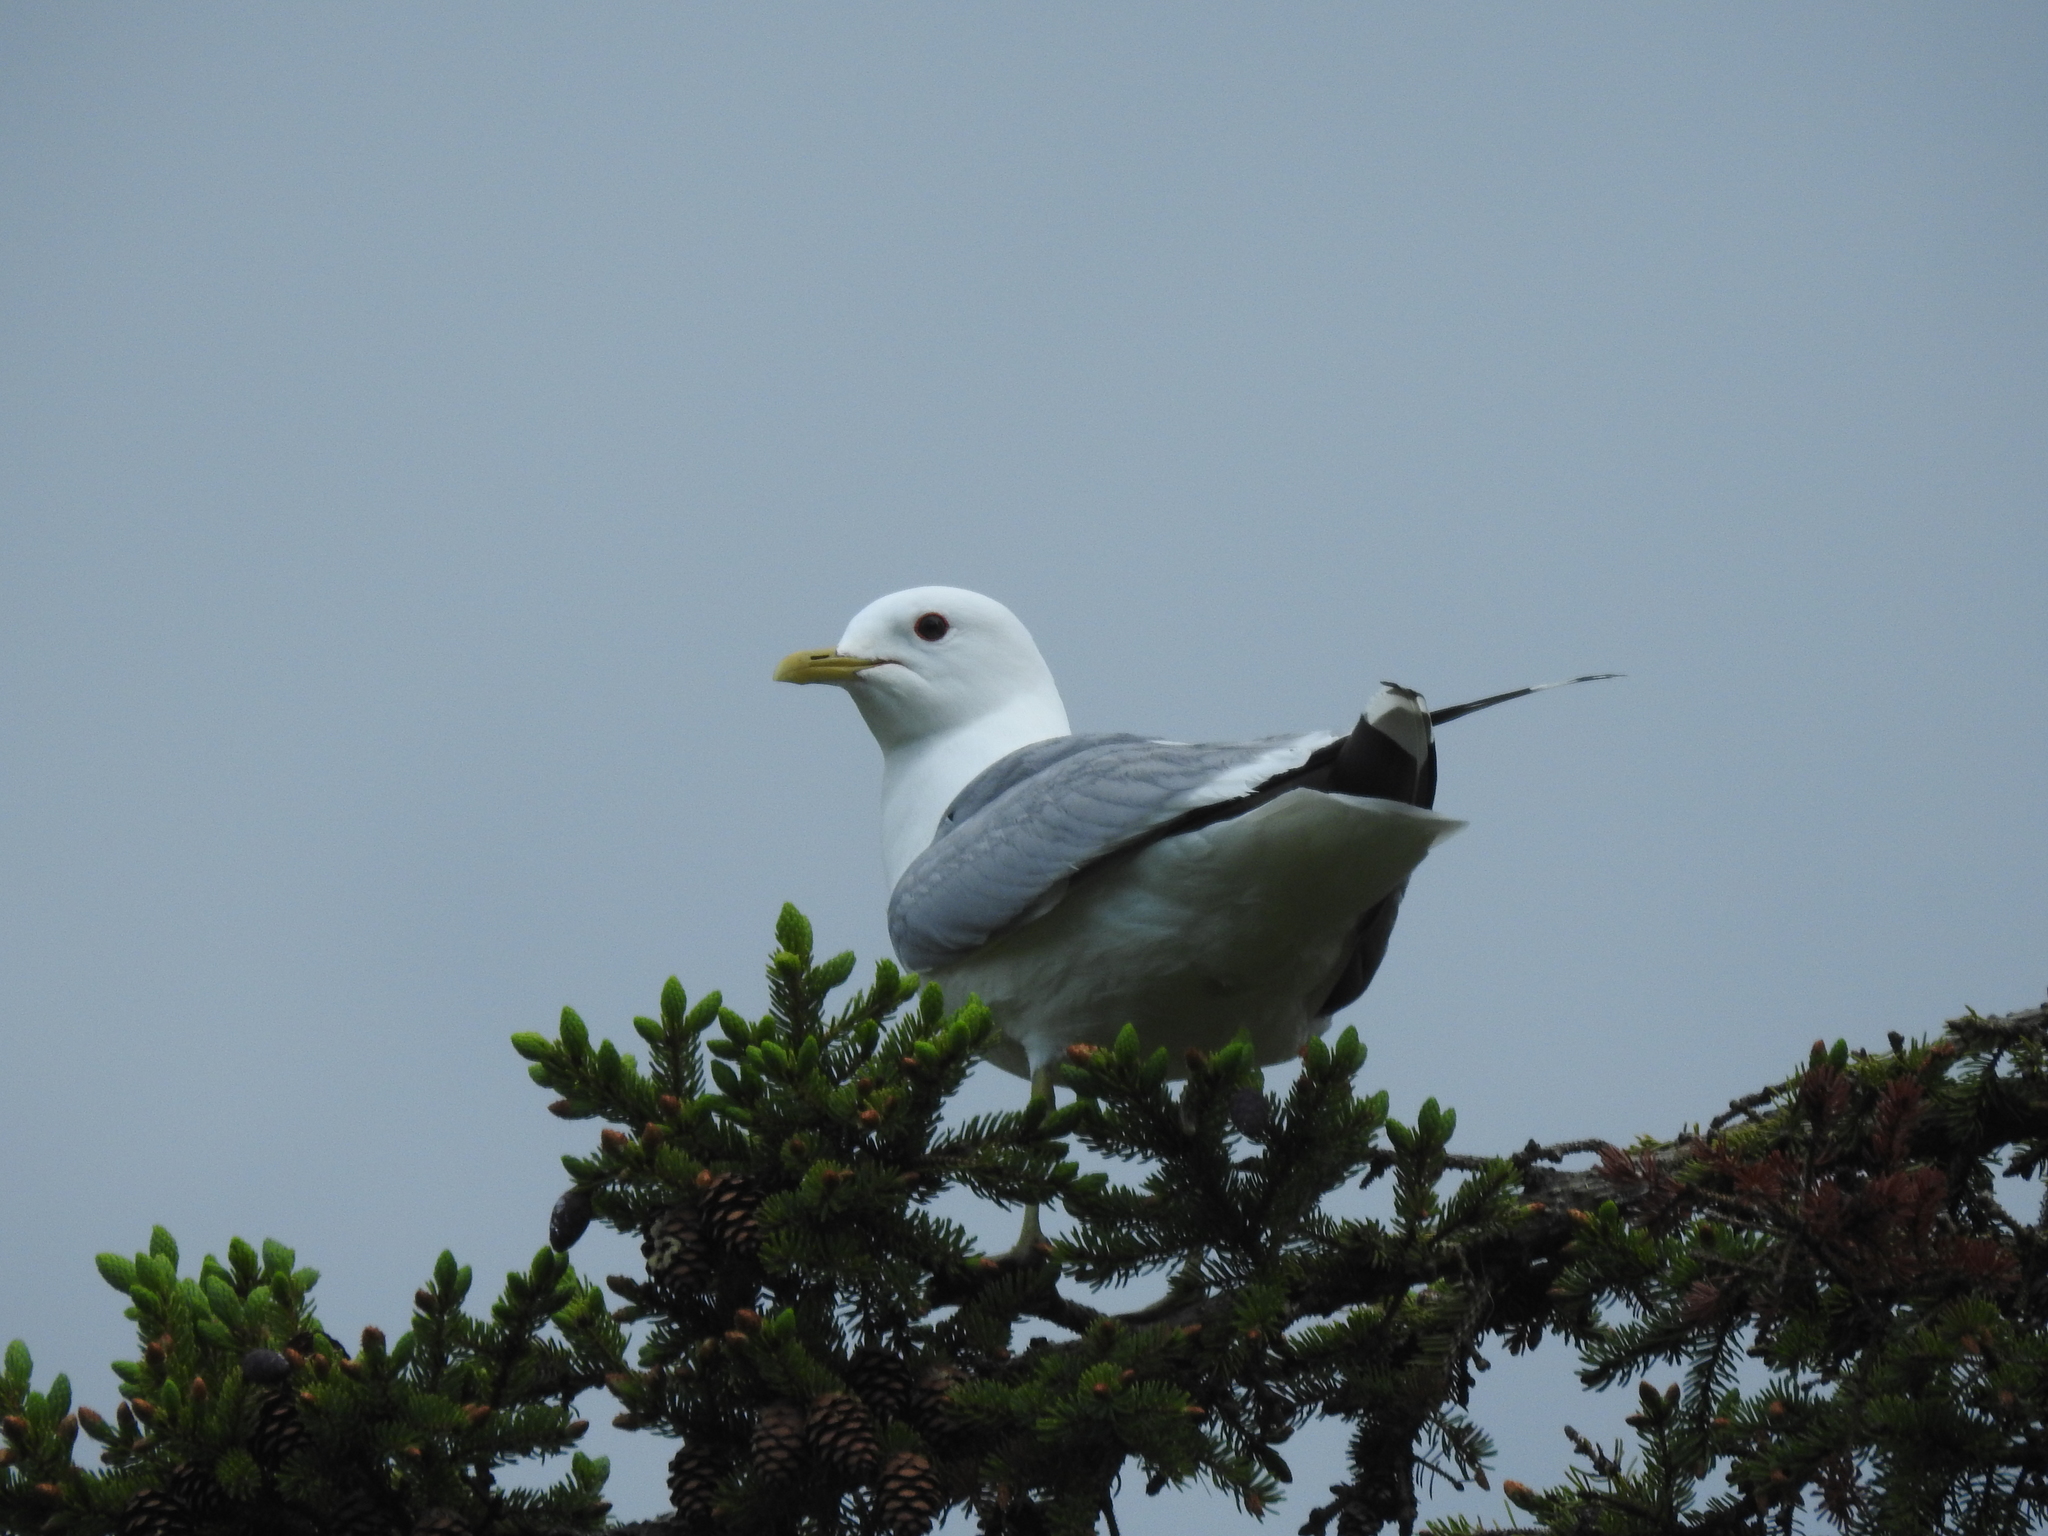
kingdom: Animalia
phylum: Chordata
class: Aves
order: Charadriiformes
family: Laridae
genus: Larus
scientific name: Larus canus
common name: Mew gull
